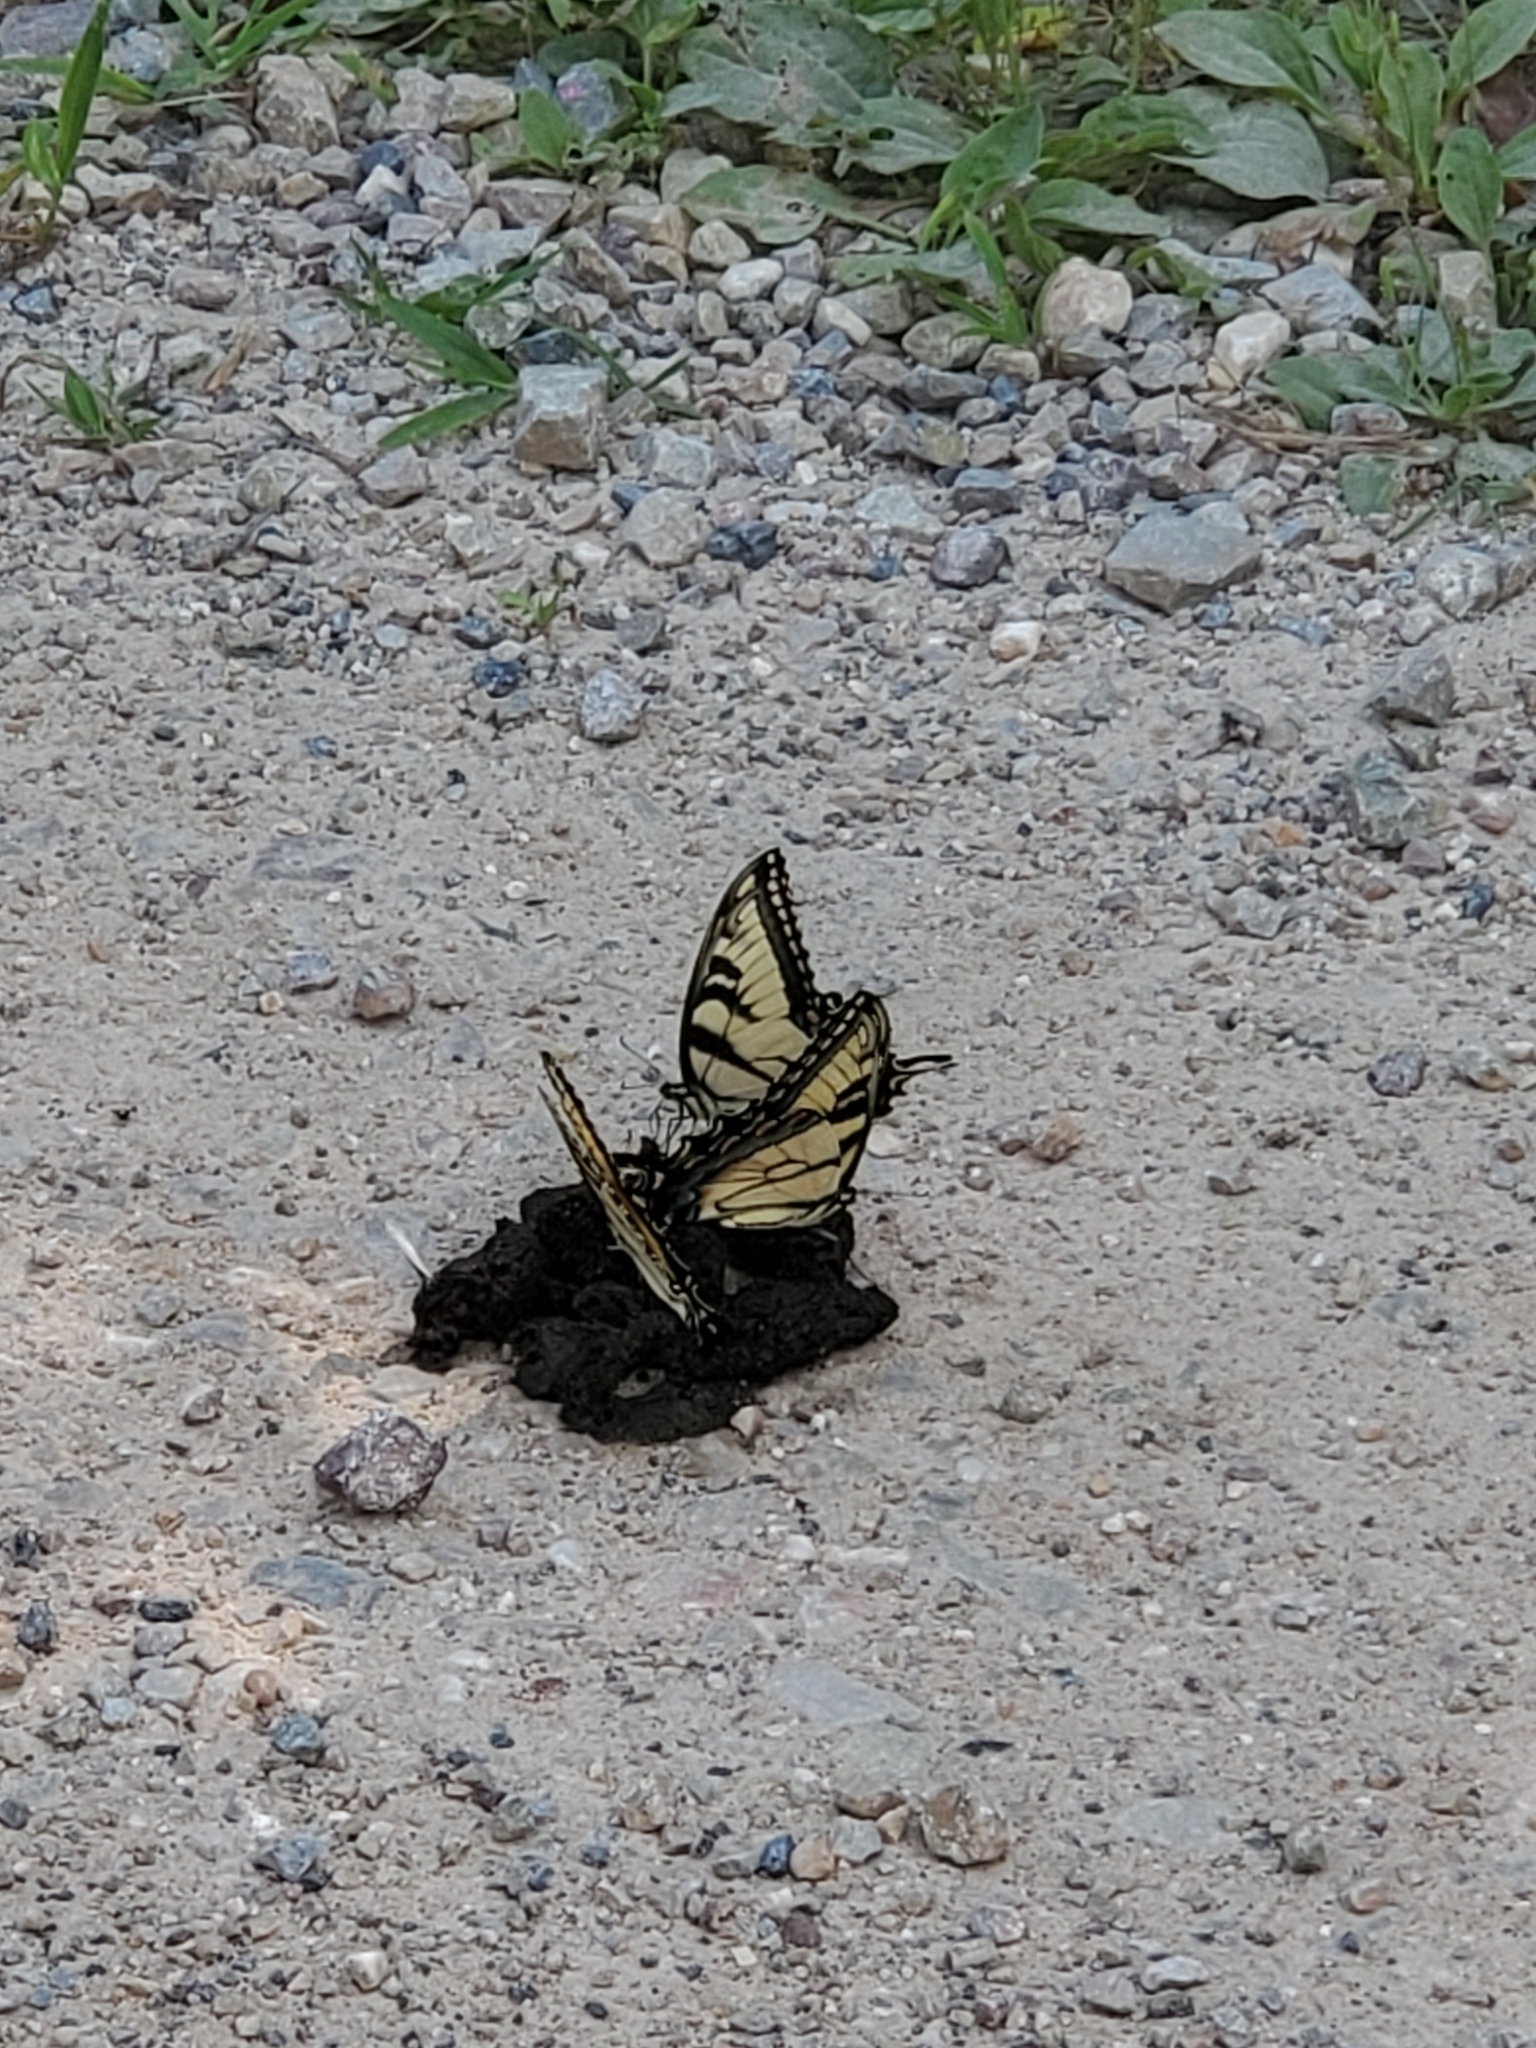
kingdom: Animalia
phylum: Arthropoda
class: Insecta
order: Lepidoptera
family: Papilionidae
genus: Papilio
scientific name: Papilio glaucus
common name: Tiger swallowtail
